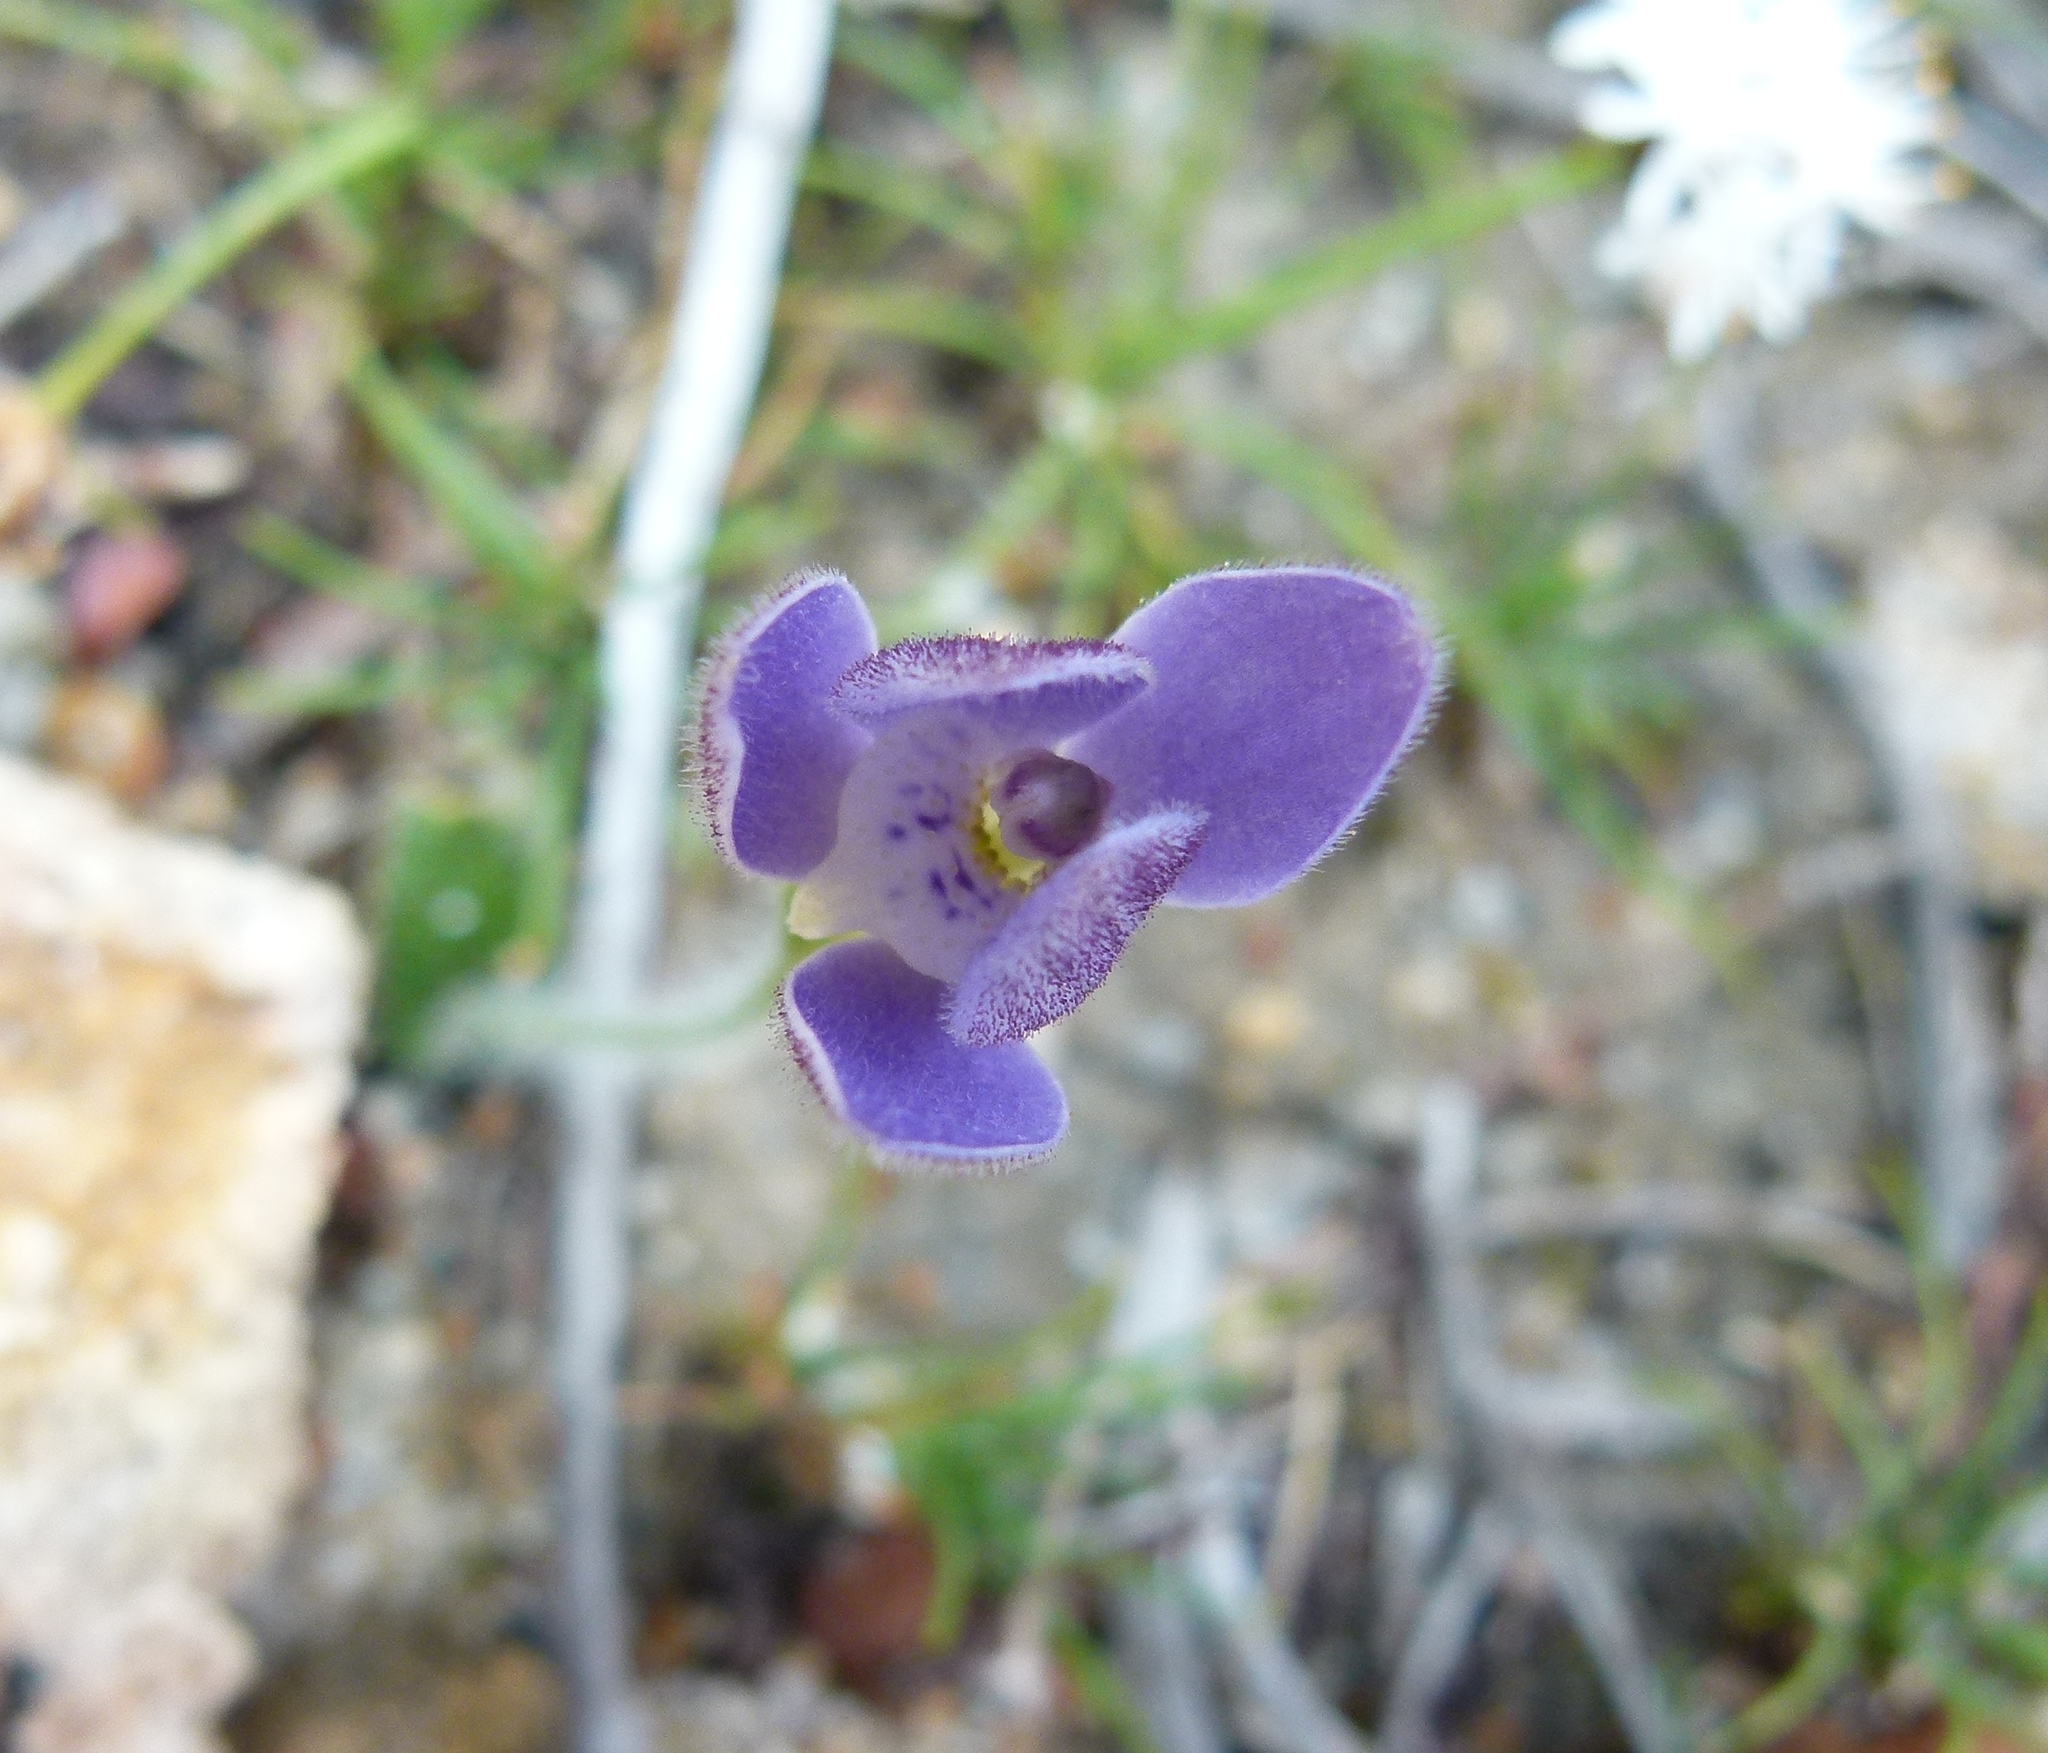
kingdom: Plantae
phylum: Tracheophyta
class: Liliopsida
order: Asparagales
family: Orchidaceae
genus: Caladenia
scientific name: Caladenia gemmata
